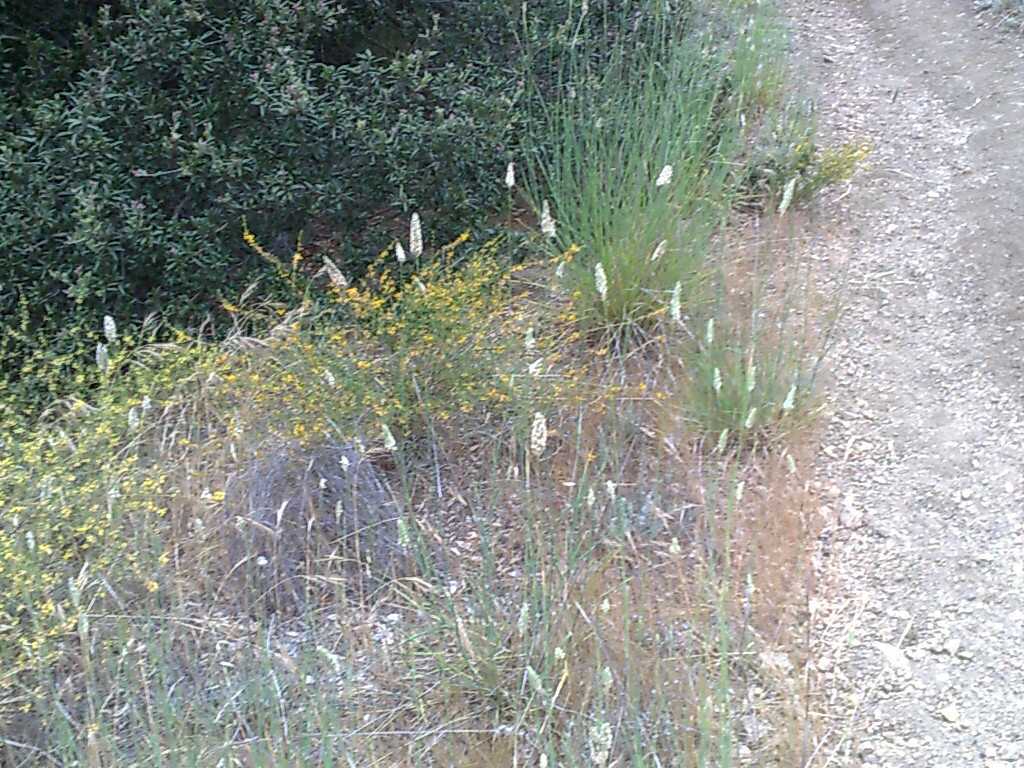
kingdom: Plantae
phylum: Tracheophyta
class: Magnoliopsida
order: Fabales
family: Fabaceae
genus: Acmispon
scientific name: Acmispon glaber
